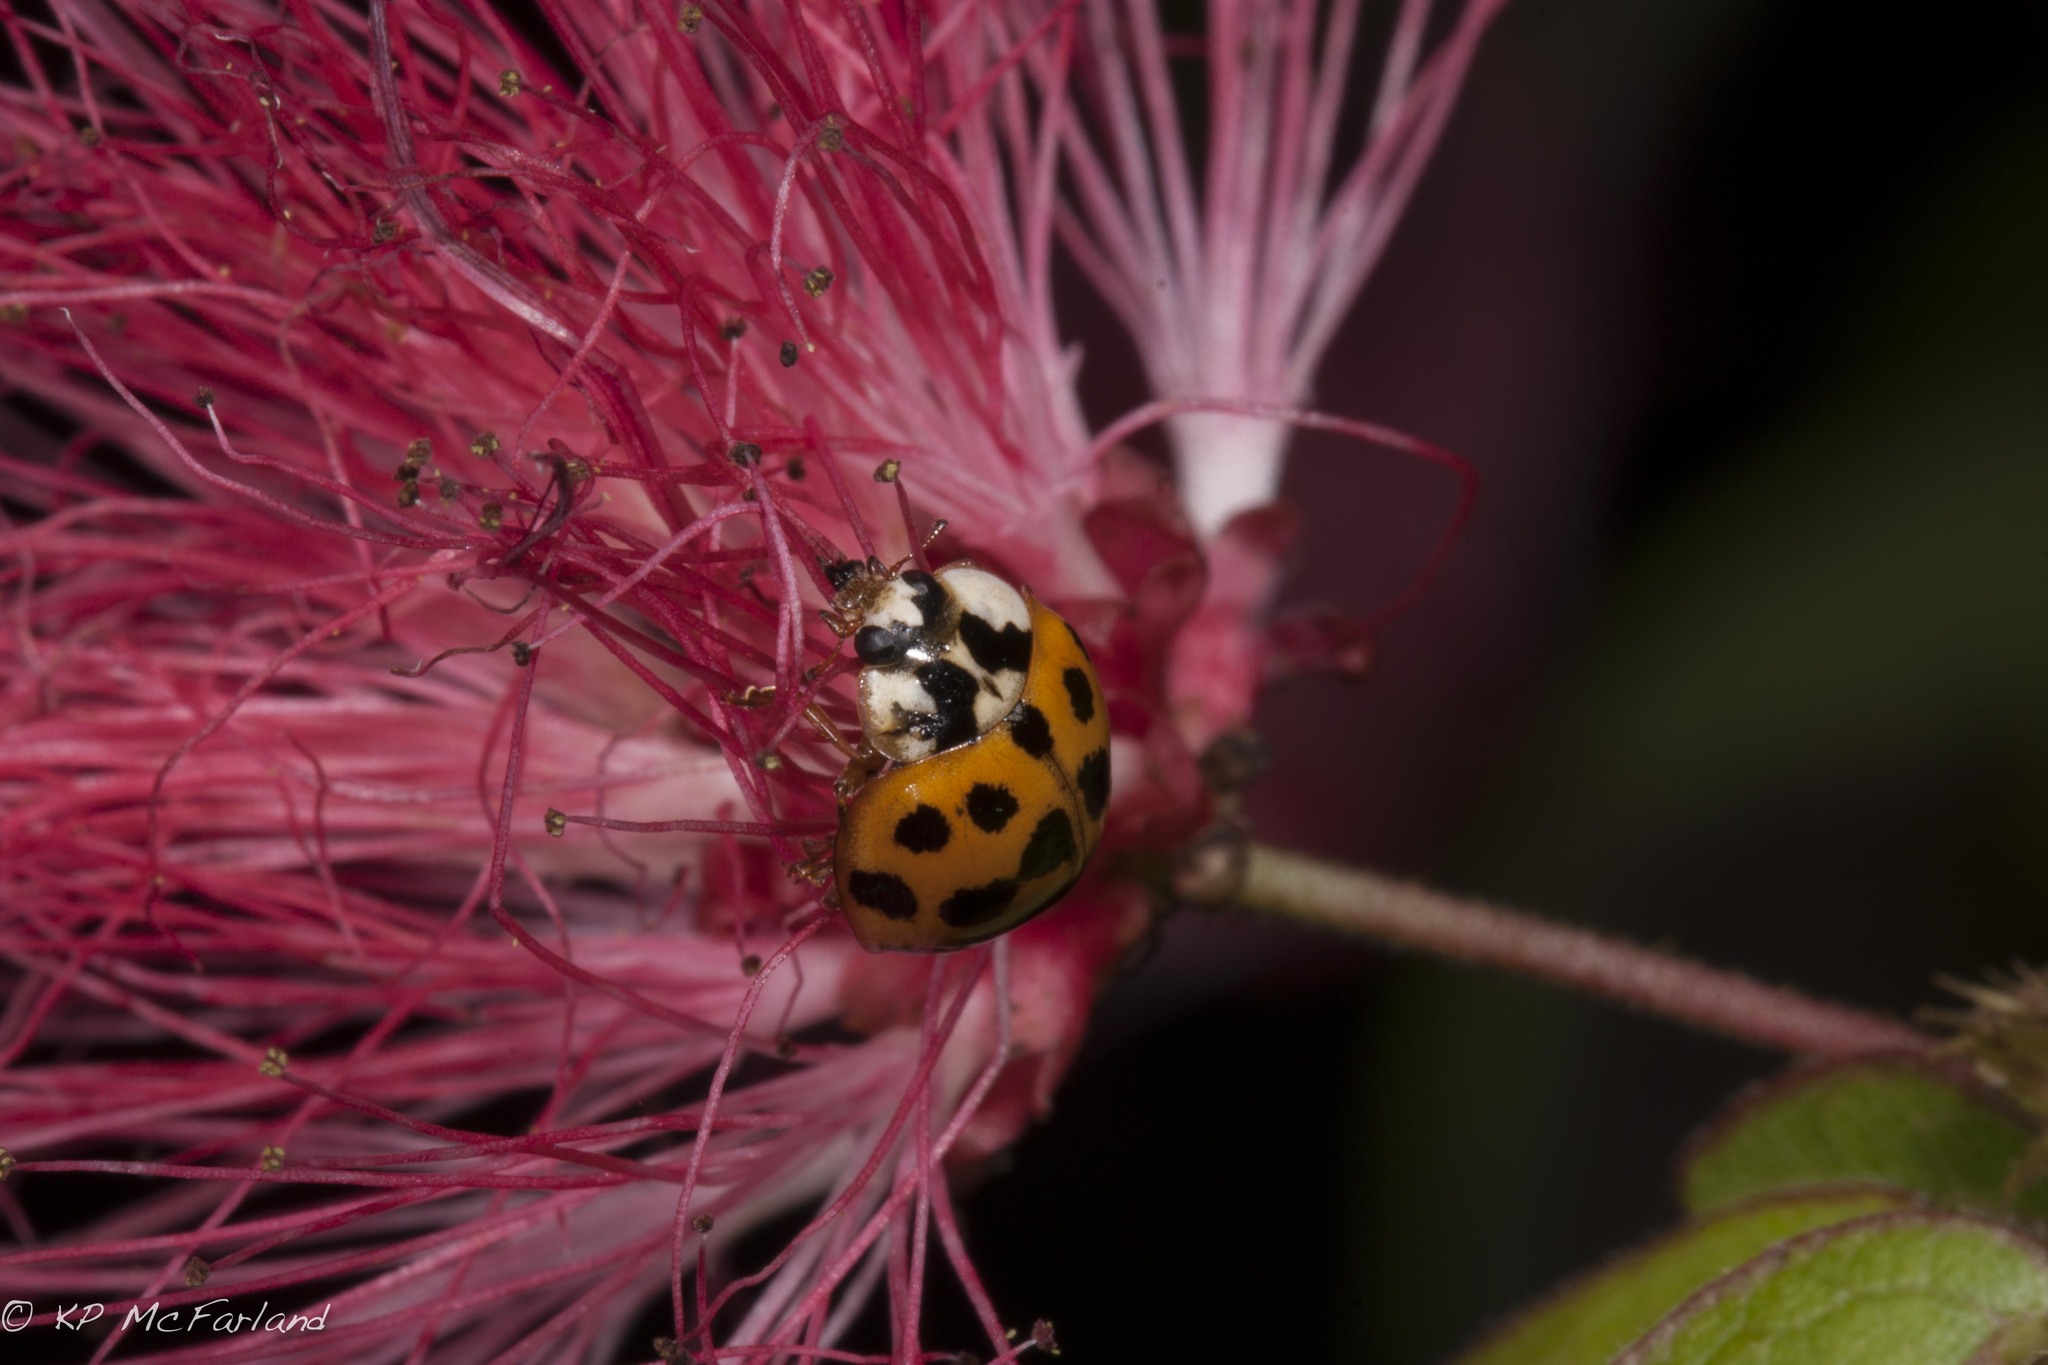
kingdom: Animalia
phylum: Arthropoda
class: Insecta
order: Coleoptera
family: Coccinellidae
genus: Harmonia
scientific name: Harmonia axyridis
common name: Harlequin ladybird
